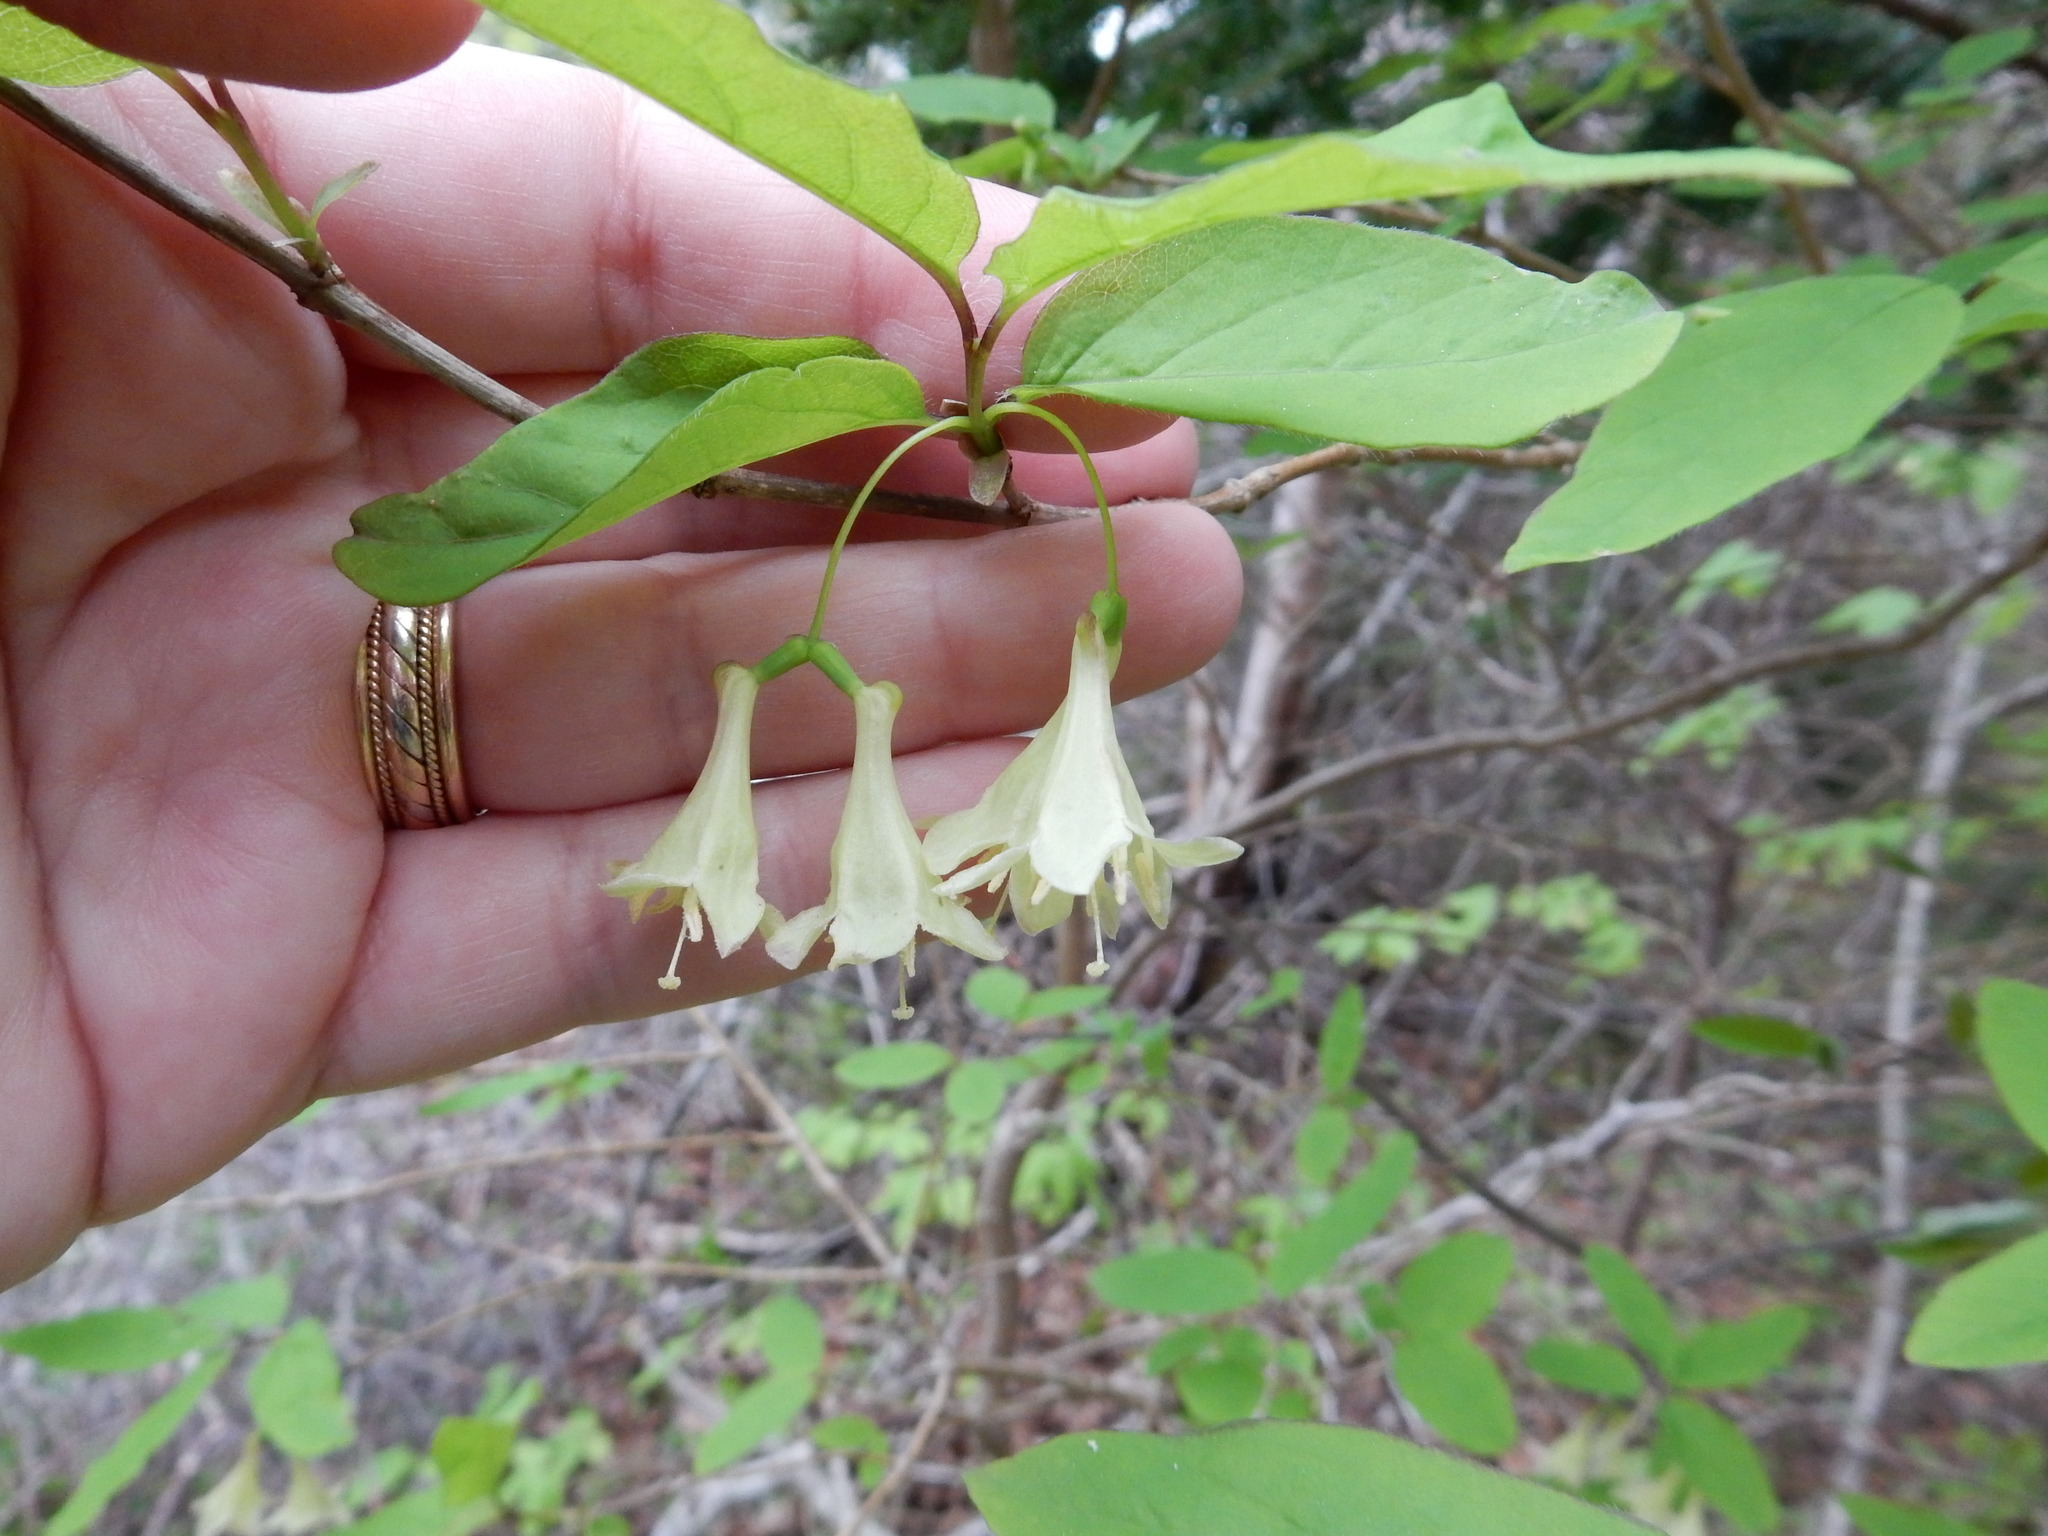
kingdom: Plantae
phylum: Tracheophyta
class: Magnoliopsida
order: Dipsacales
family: Caprifoliaceae
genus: Lonicera
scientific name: Lonicera canadensis
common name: American fly-honeysuckle
